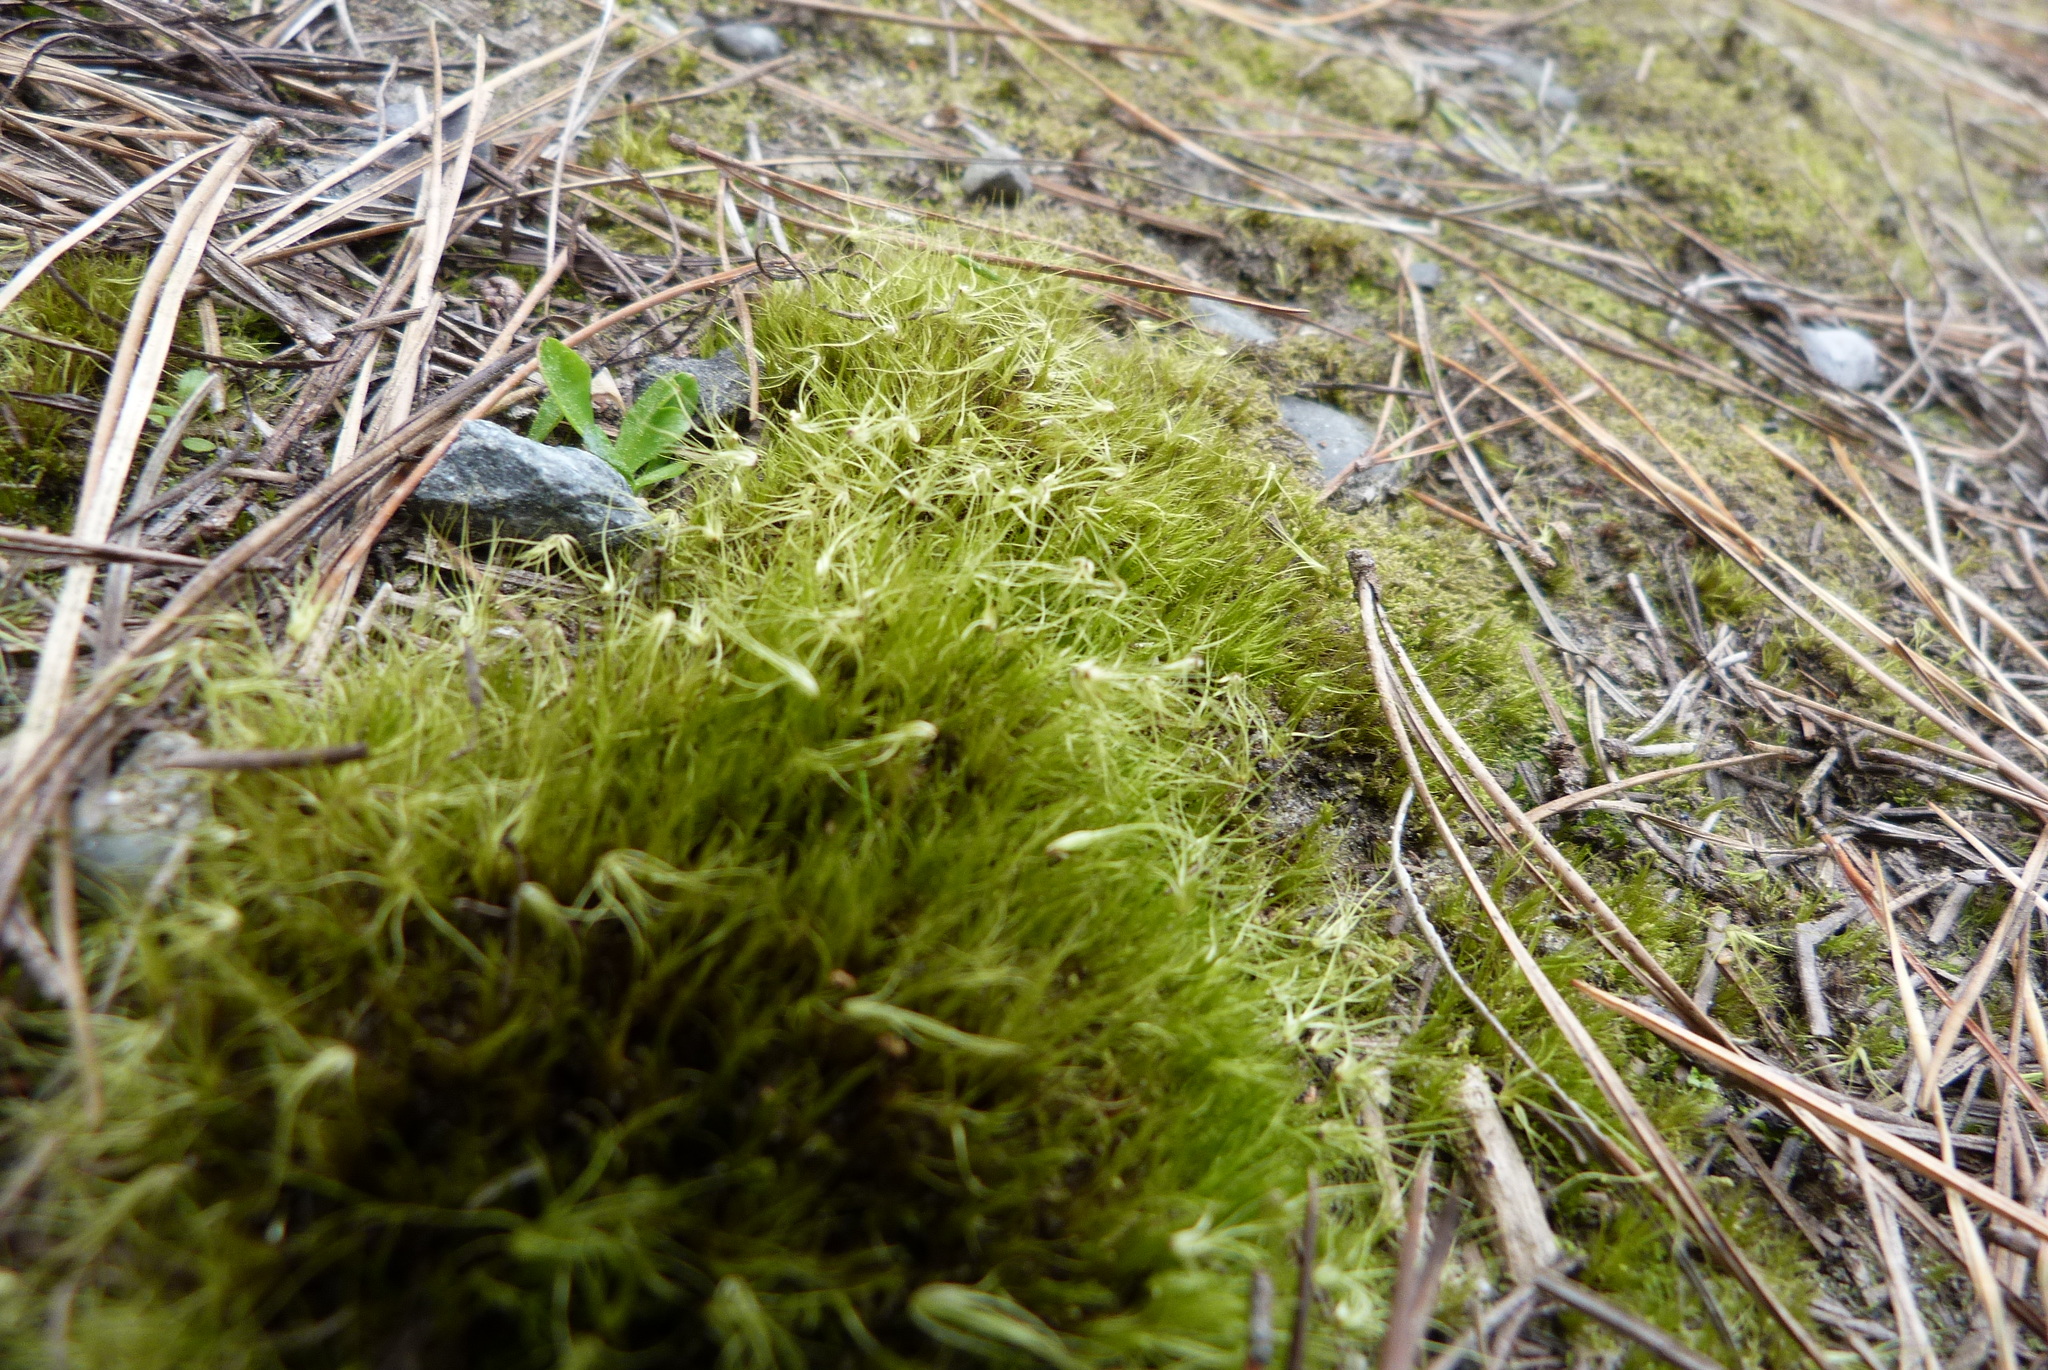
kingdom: Plantae
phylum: Bryophyta
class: Bryopsida
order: Dicranales
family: Leucobryaceae
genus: Campylopus
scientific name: Campylopus clavatus
